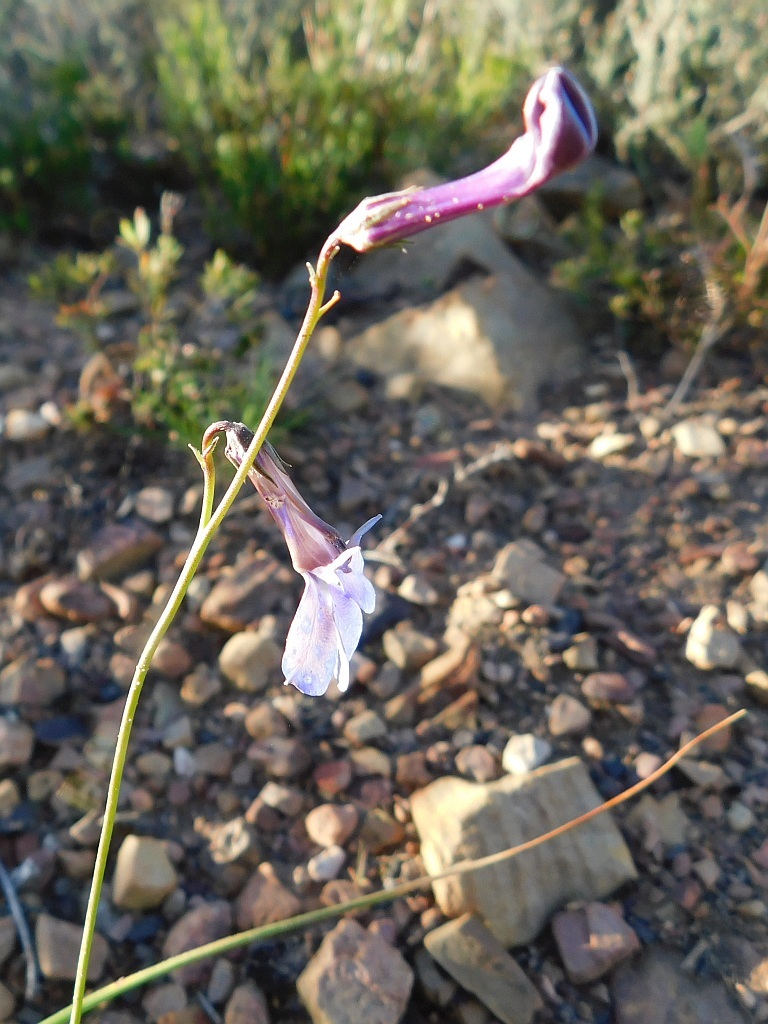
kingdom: Plantae
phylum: Tracheophyta
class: Magnoliopsida
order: Asterales
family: Campanulaceae
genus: Lobelia
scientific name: Lobelia chamaepitys
